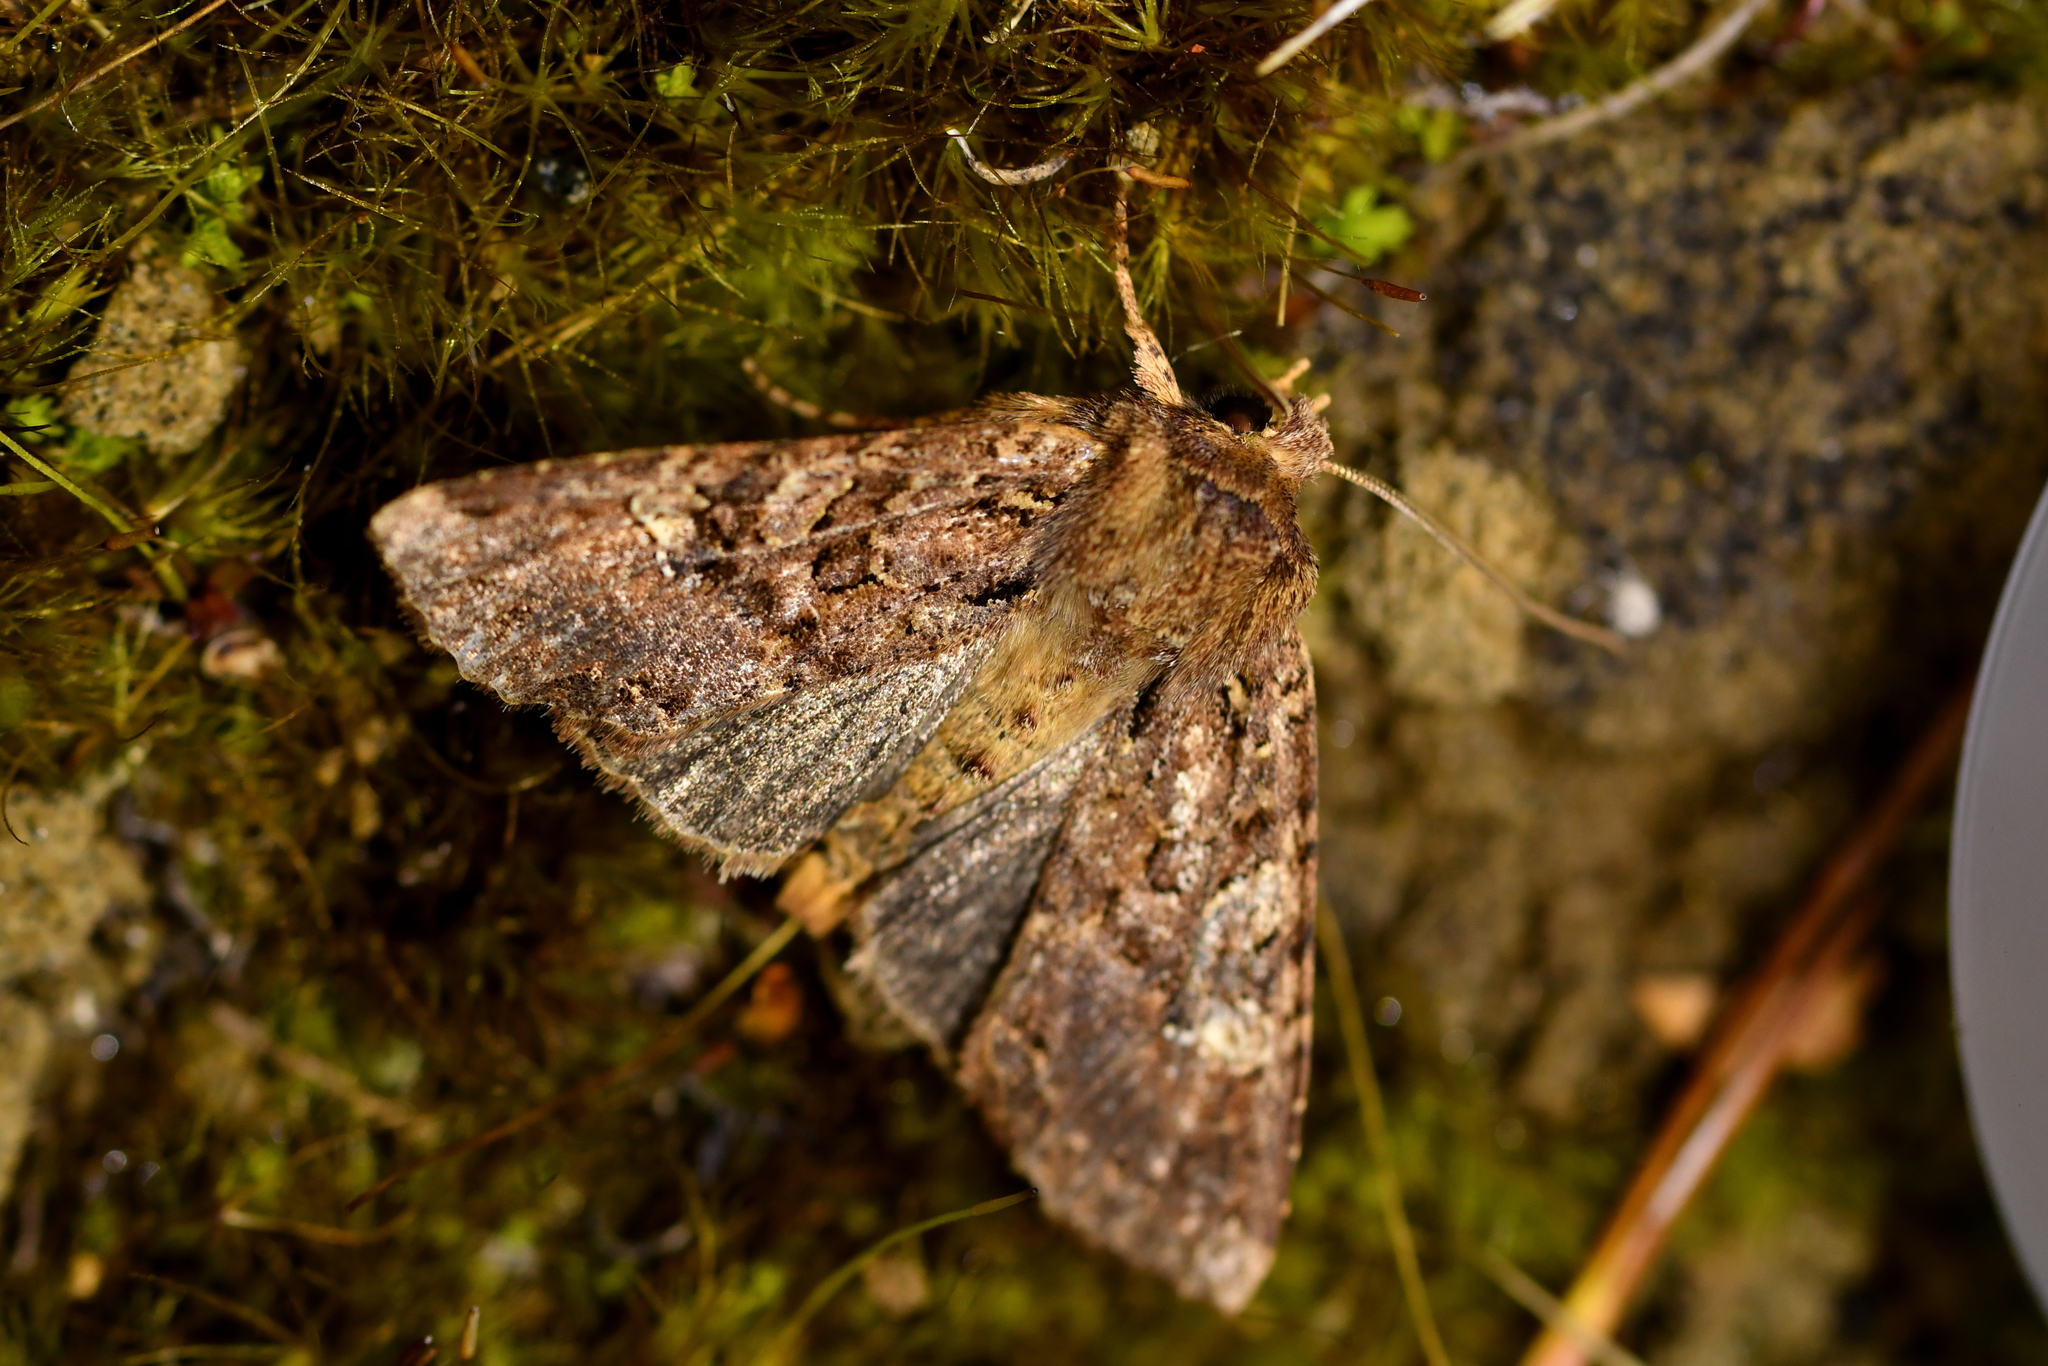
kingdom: Animalia
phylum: Arthropoda
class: Insecta
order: Lepidoptera
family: Noctuidae
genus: Meterana
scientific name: Meterana
